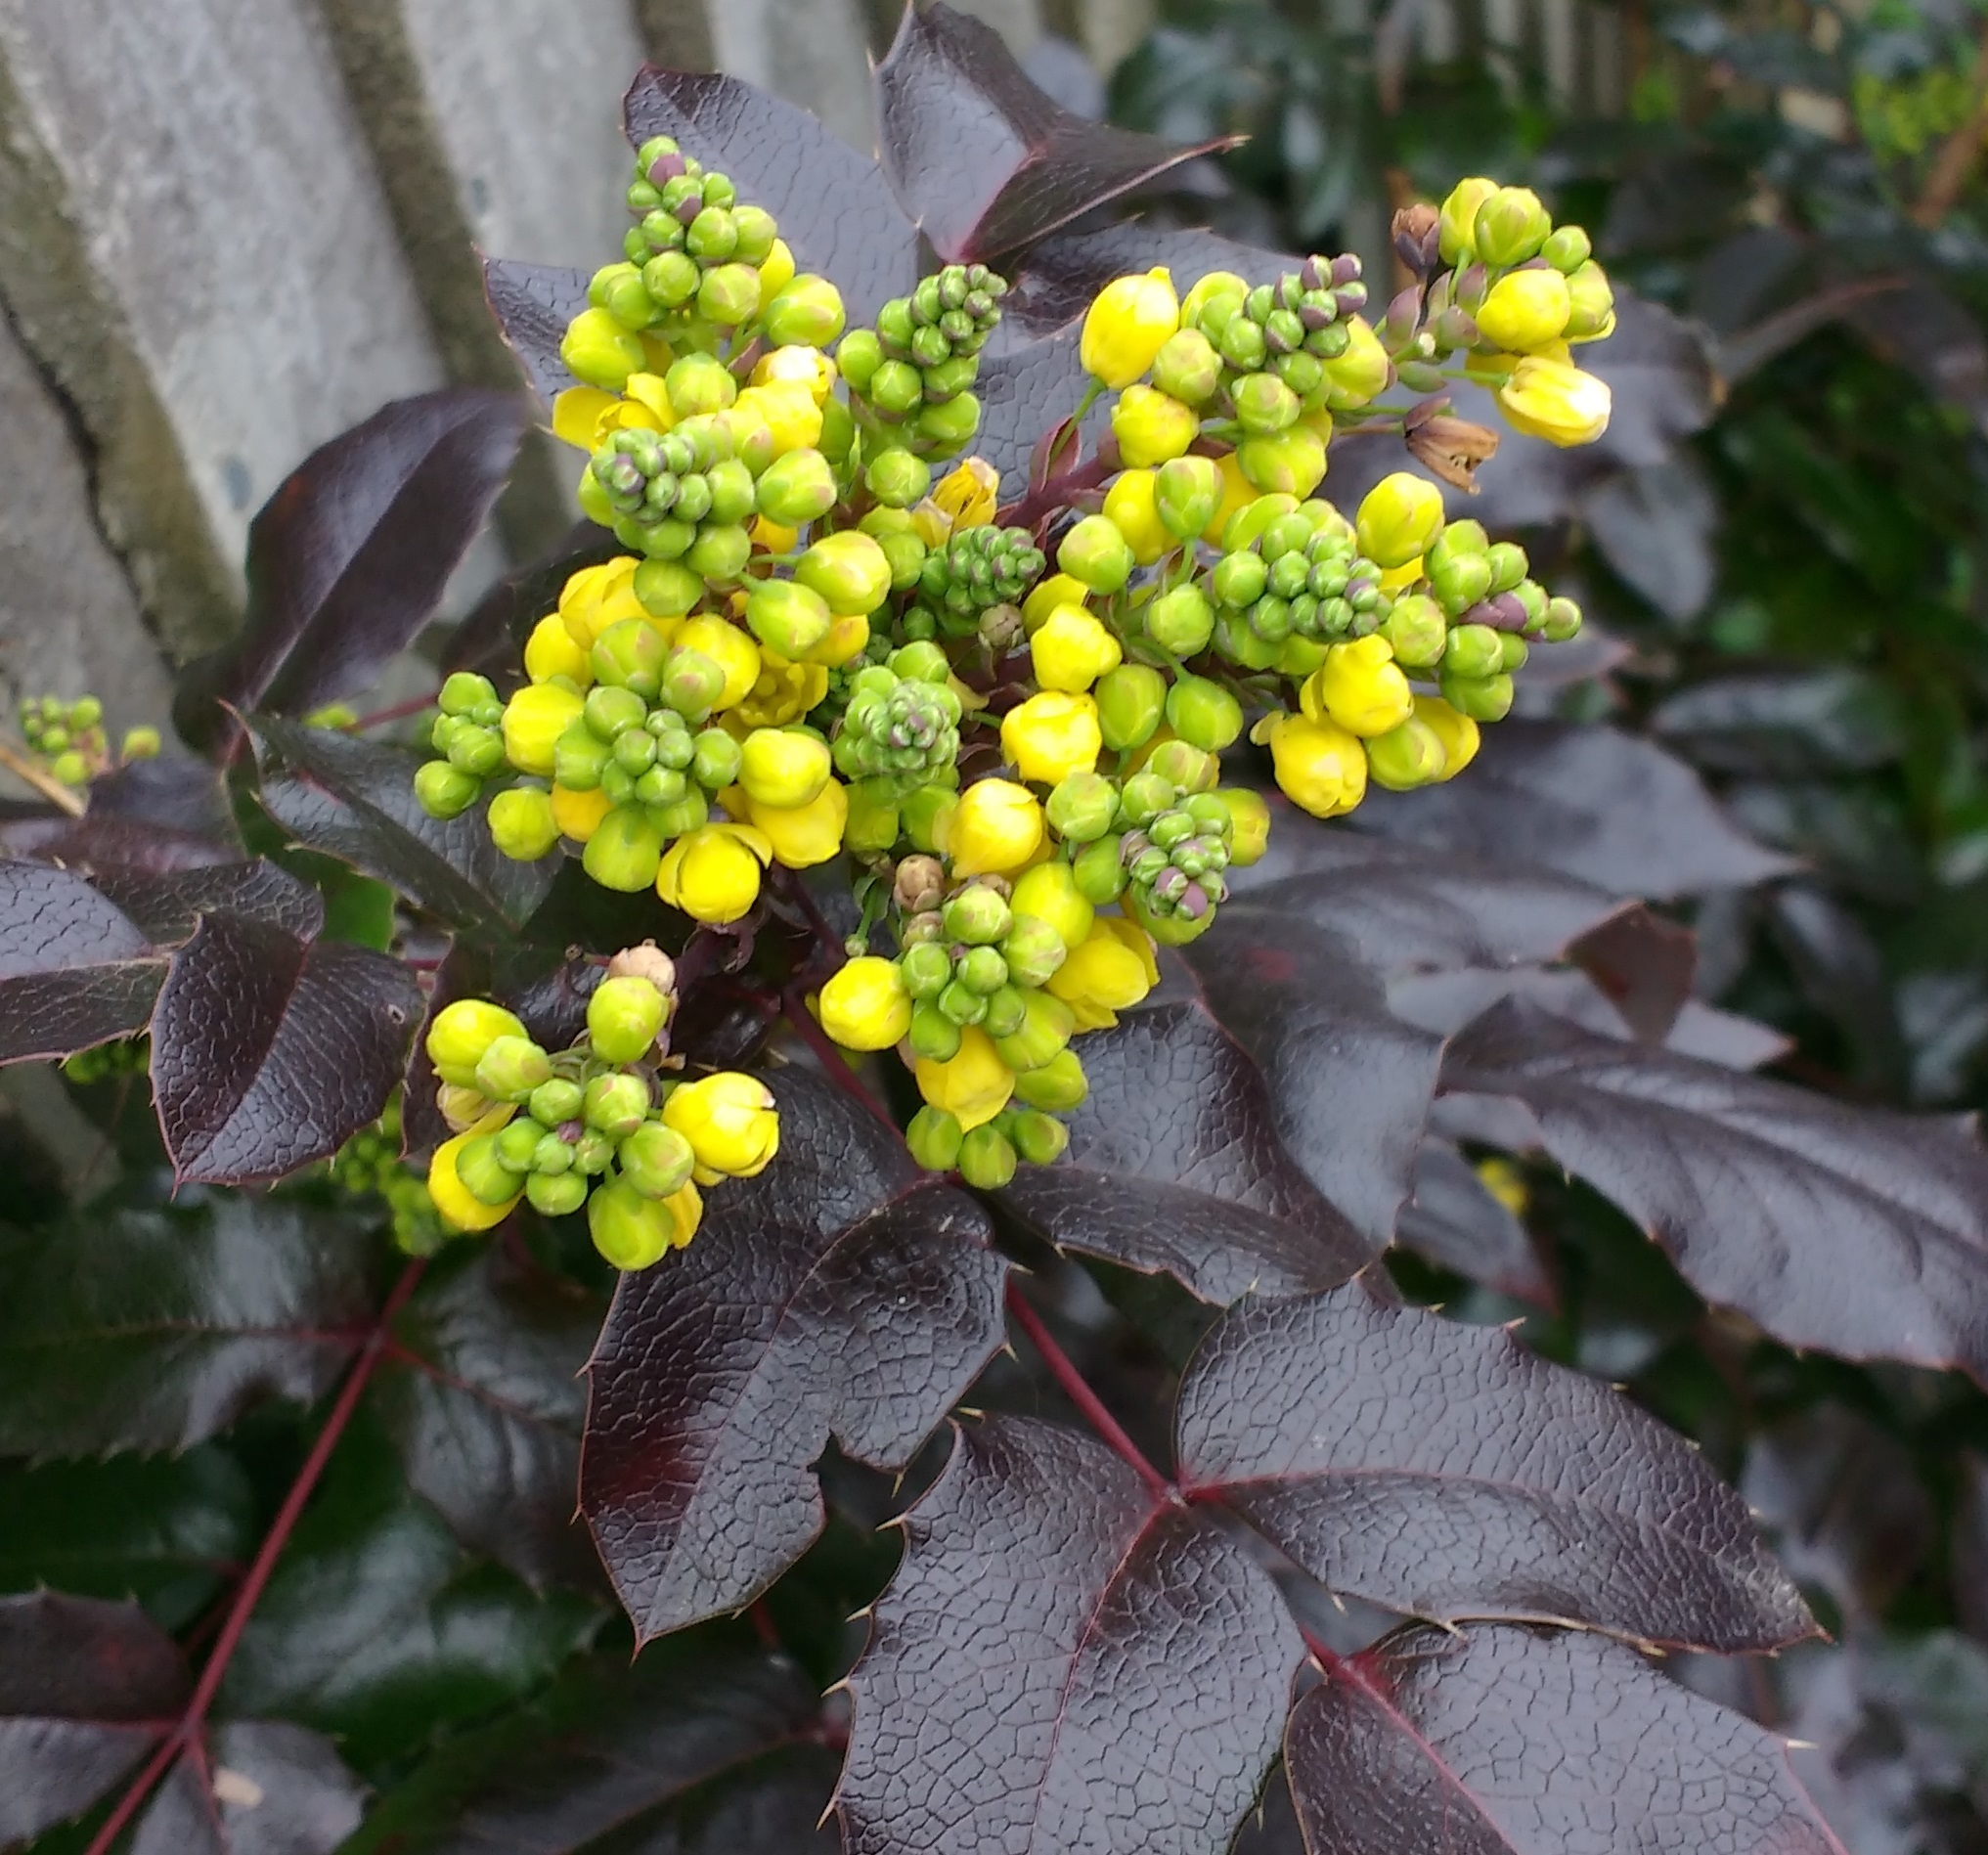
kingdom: Plantae
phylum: Tracheophyta
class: Magnoliopsida
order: Ranunculales
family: Berberidaceae
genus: Mahonia
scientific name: Mahonia aquifolium
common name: Oregon-grape
